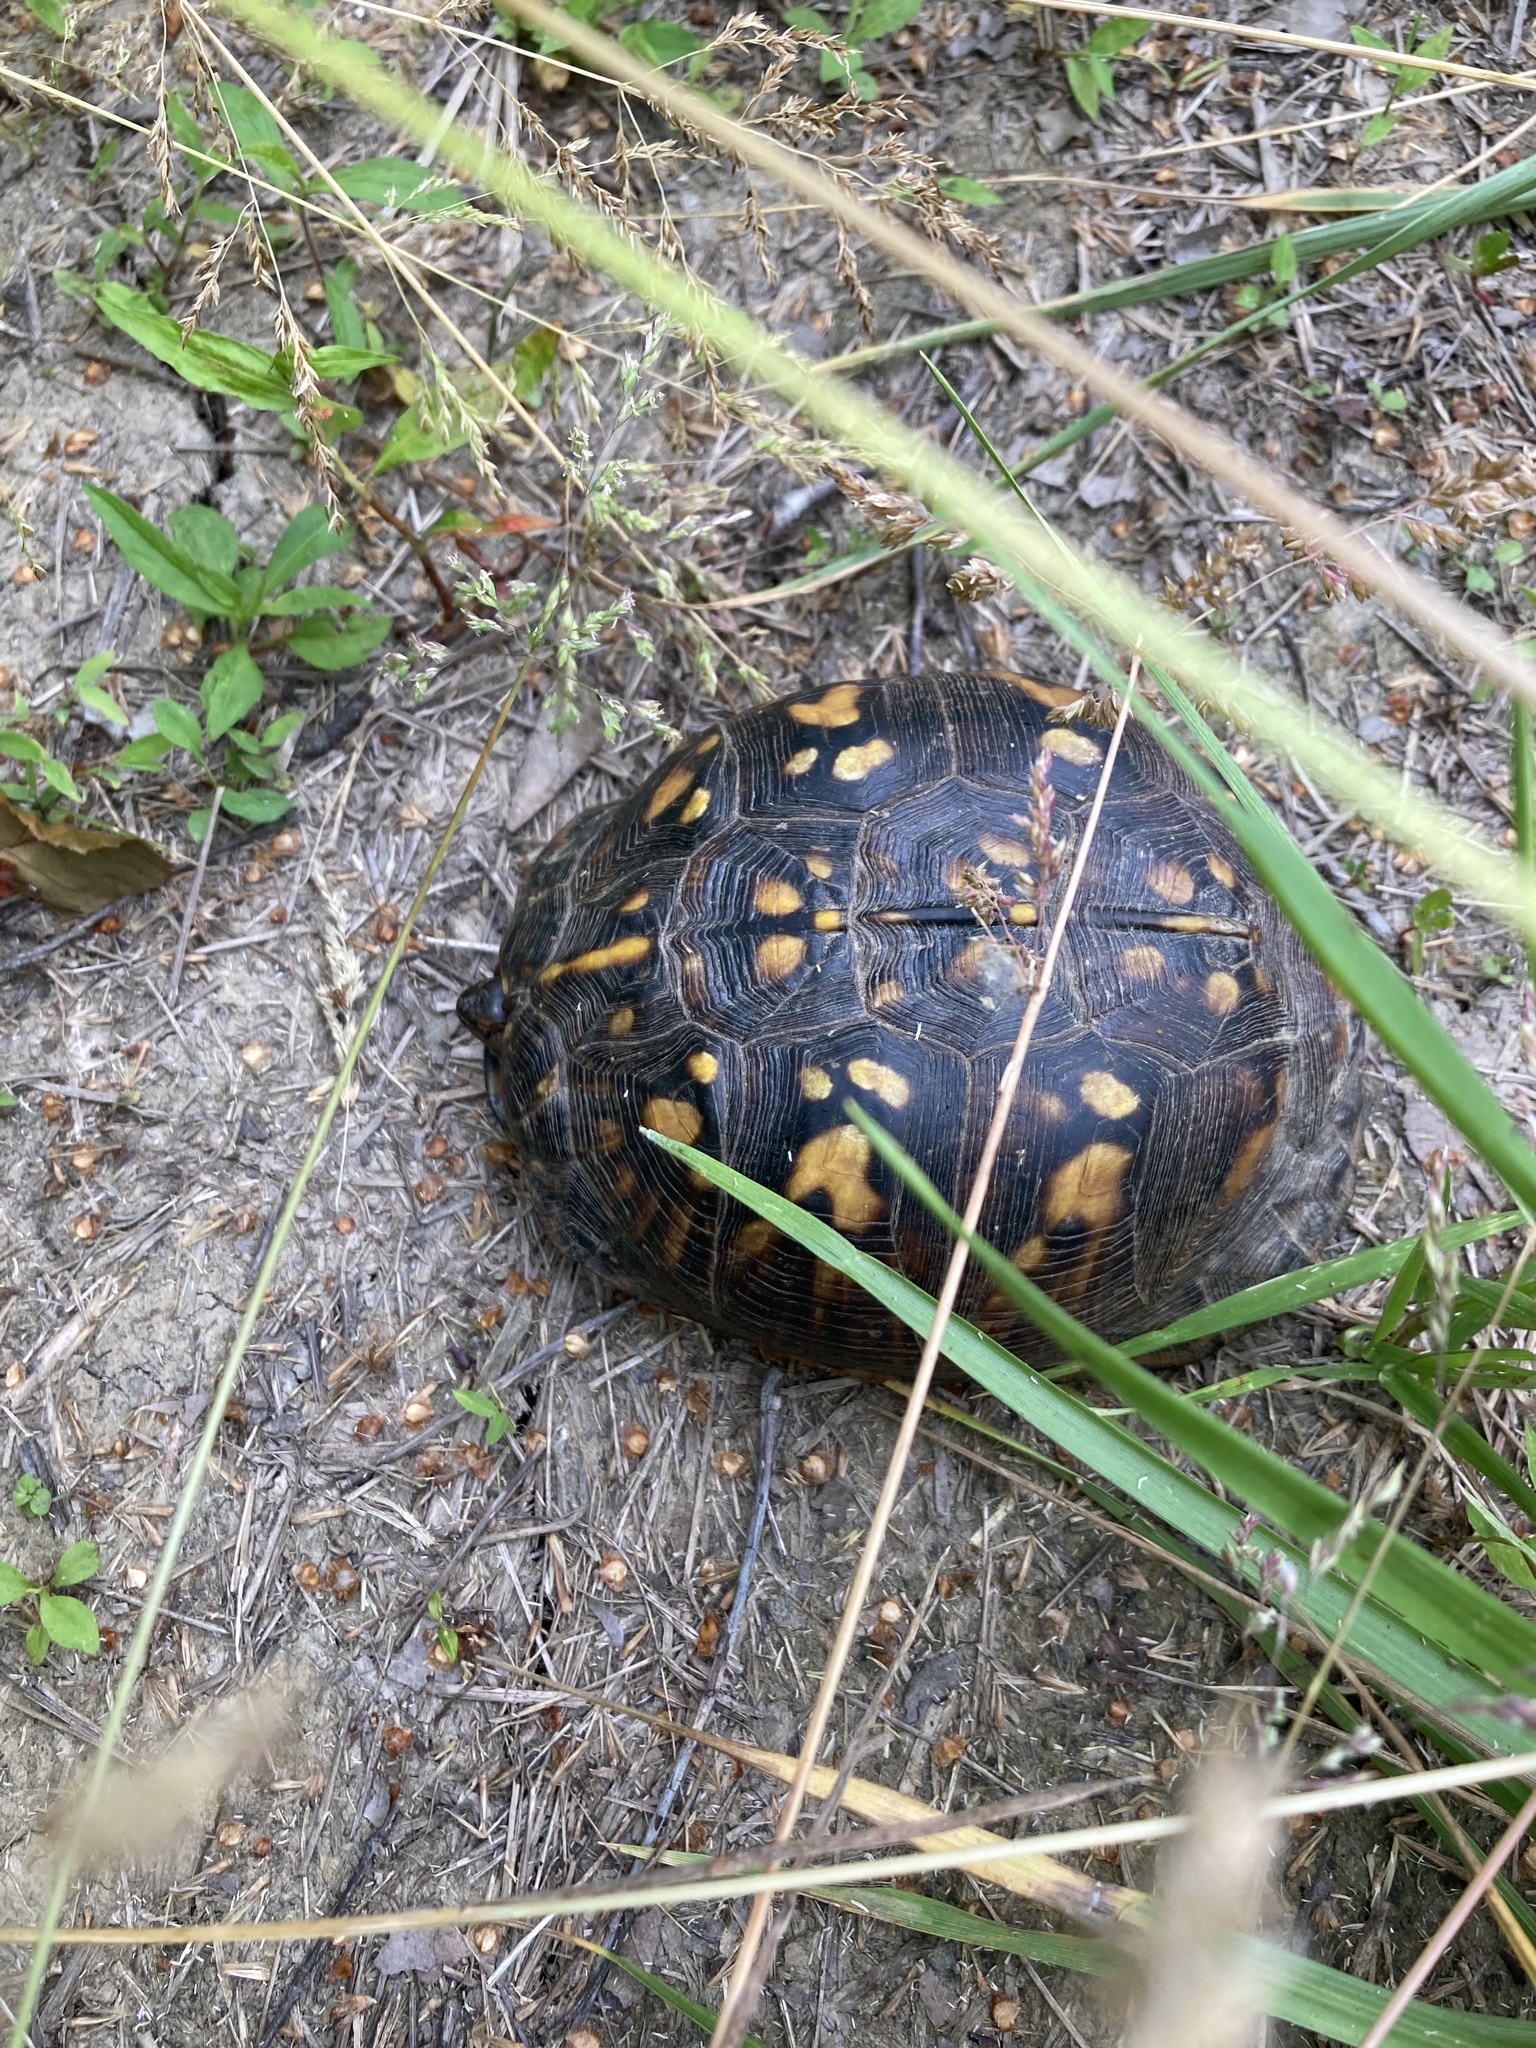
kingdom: Animalia
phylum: Chordata
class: Testudines
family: Emydidae
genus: Terrapene
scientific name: Terrapene carolina
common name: Common box turtle
